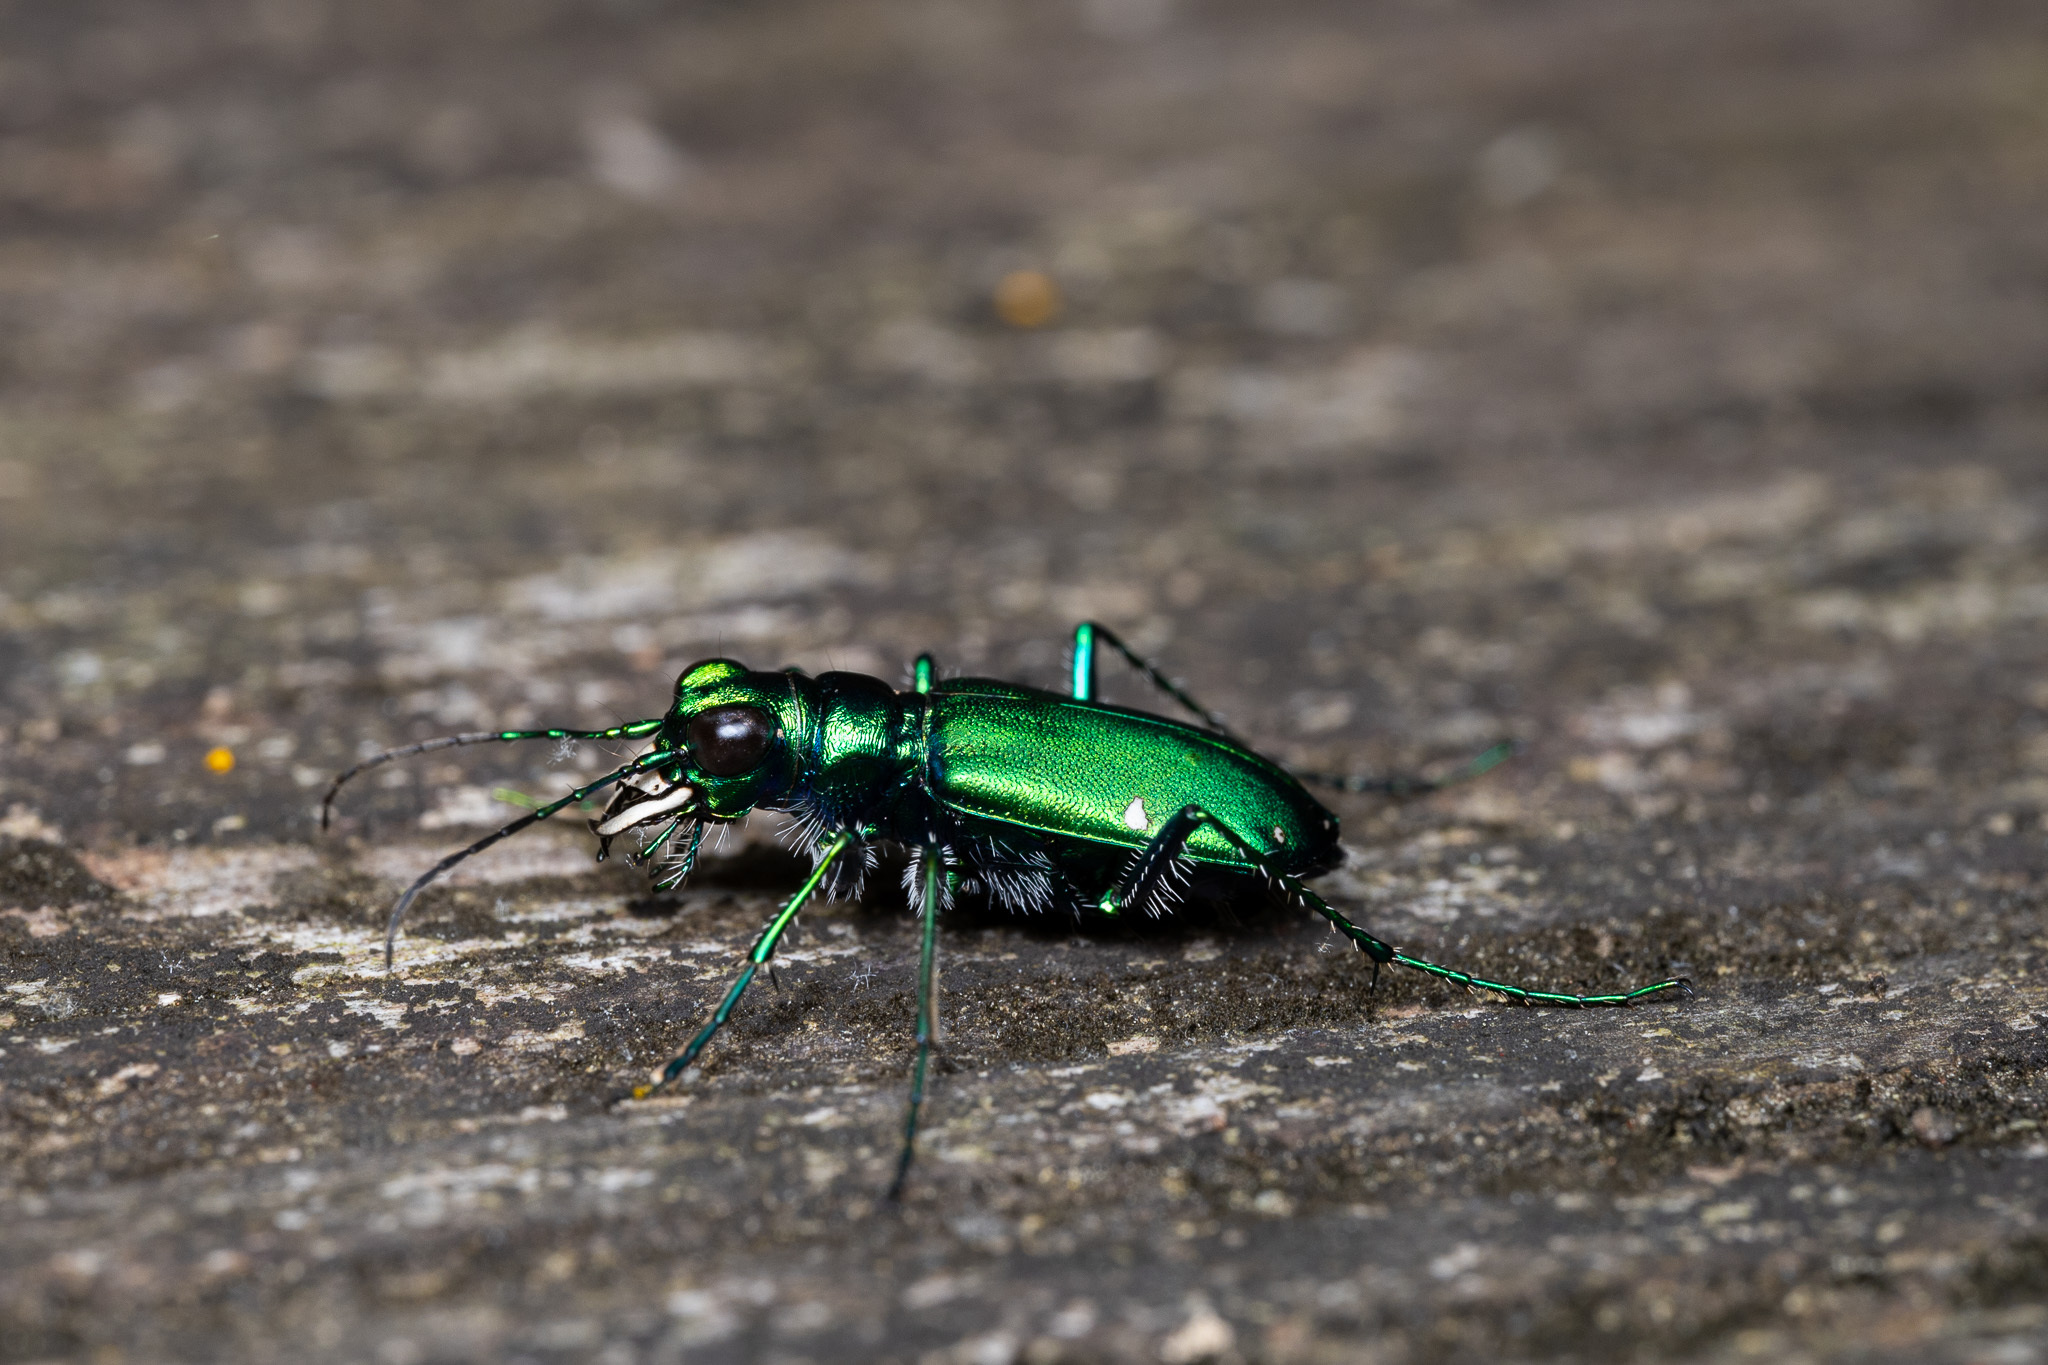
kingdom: Animalia
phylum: Arthropoda
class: Insecta
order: Coleoptera
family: Carabidae
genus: Cicindela
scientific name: Cicindela sexguttata
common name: Six-spotted tiger beetle
